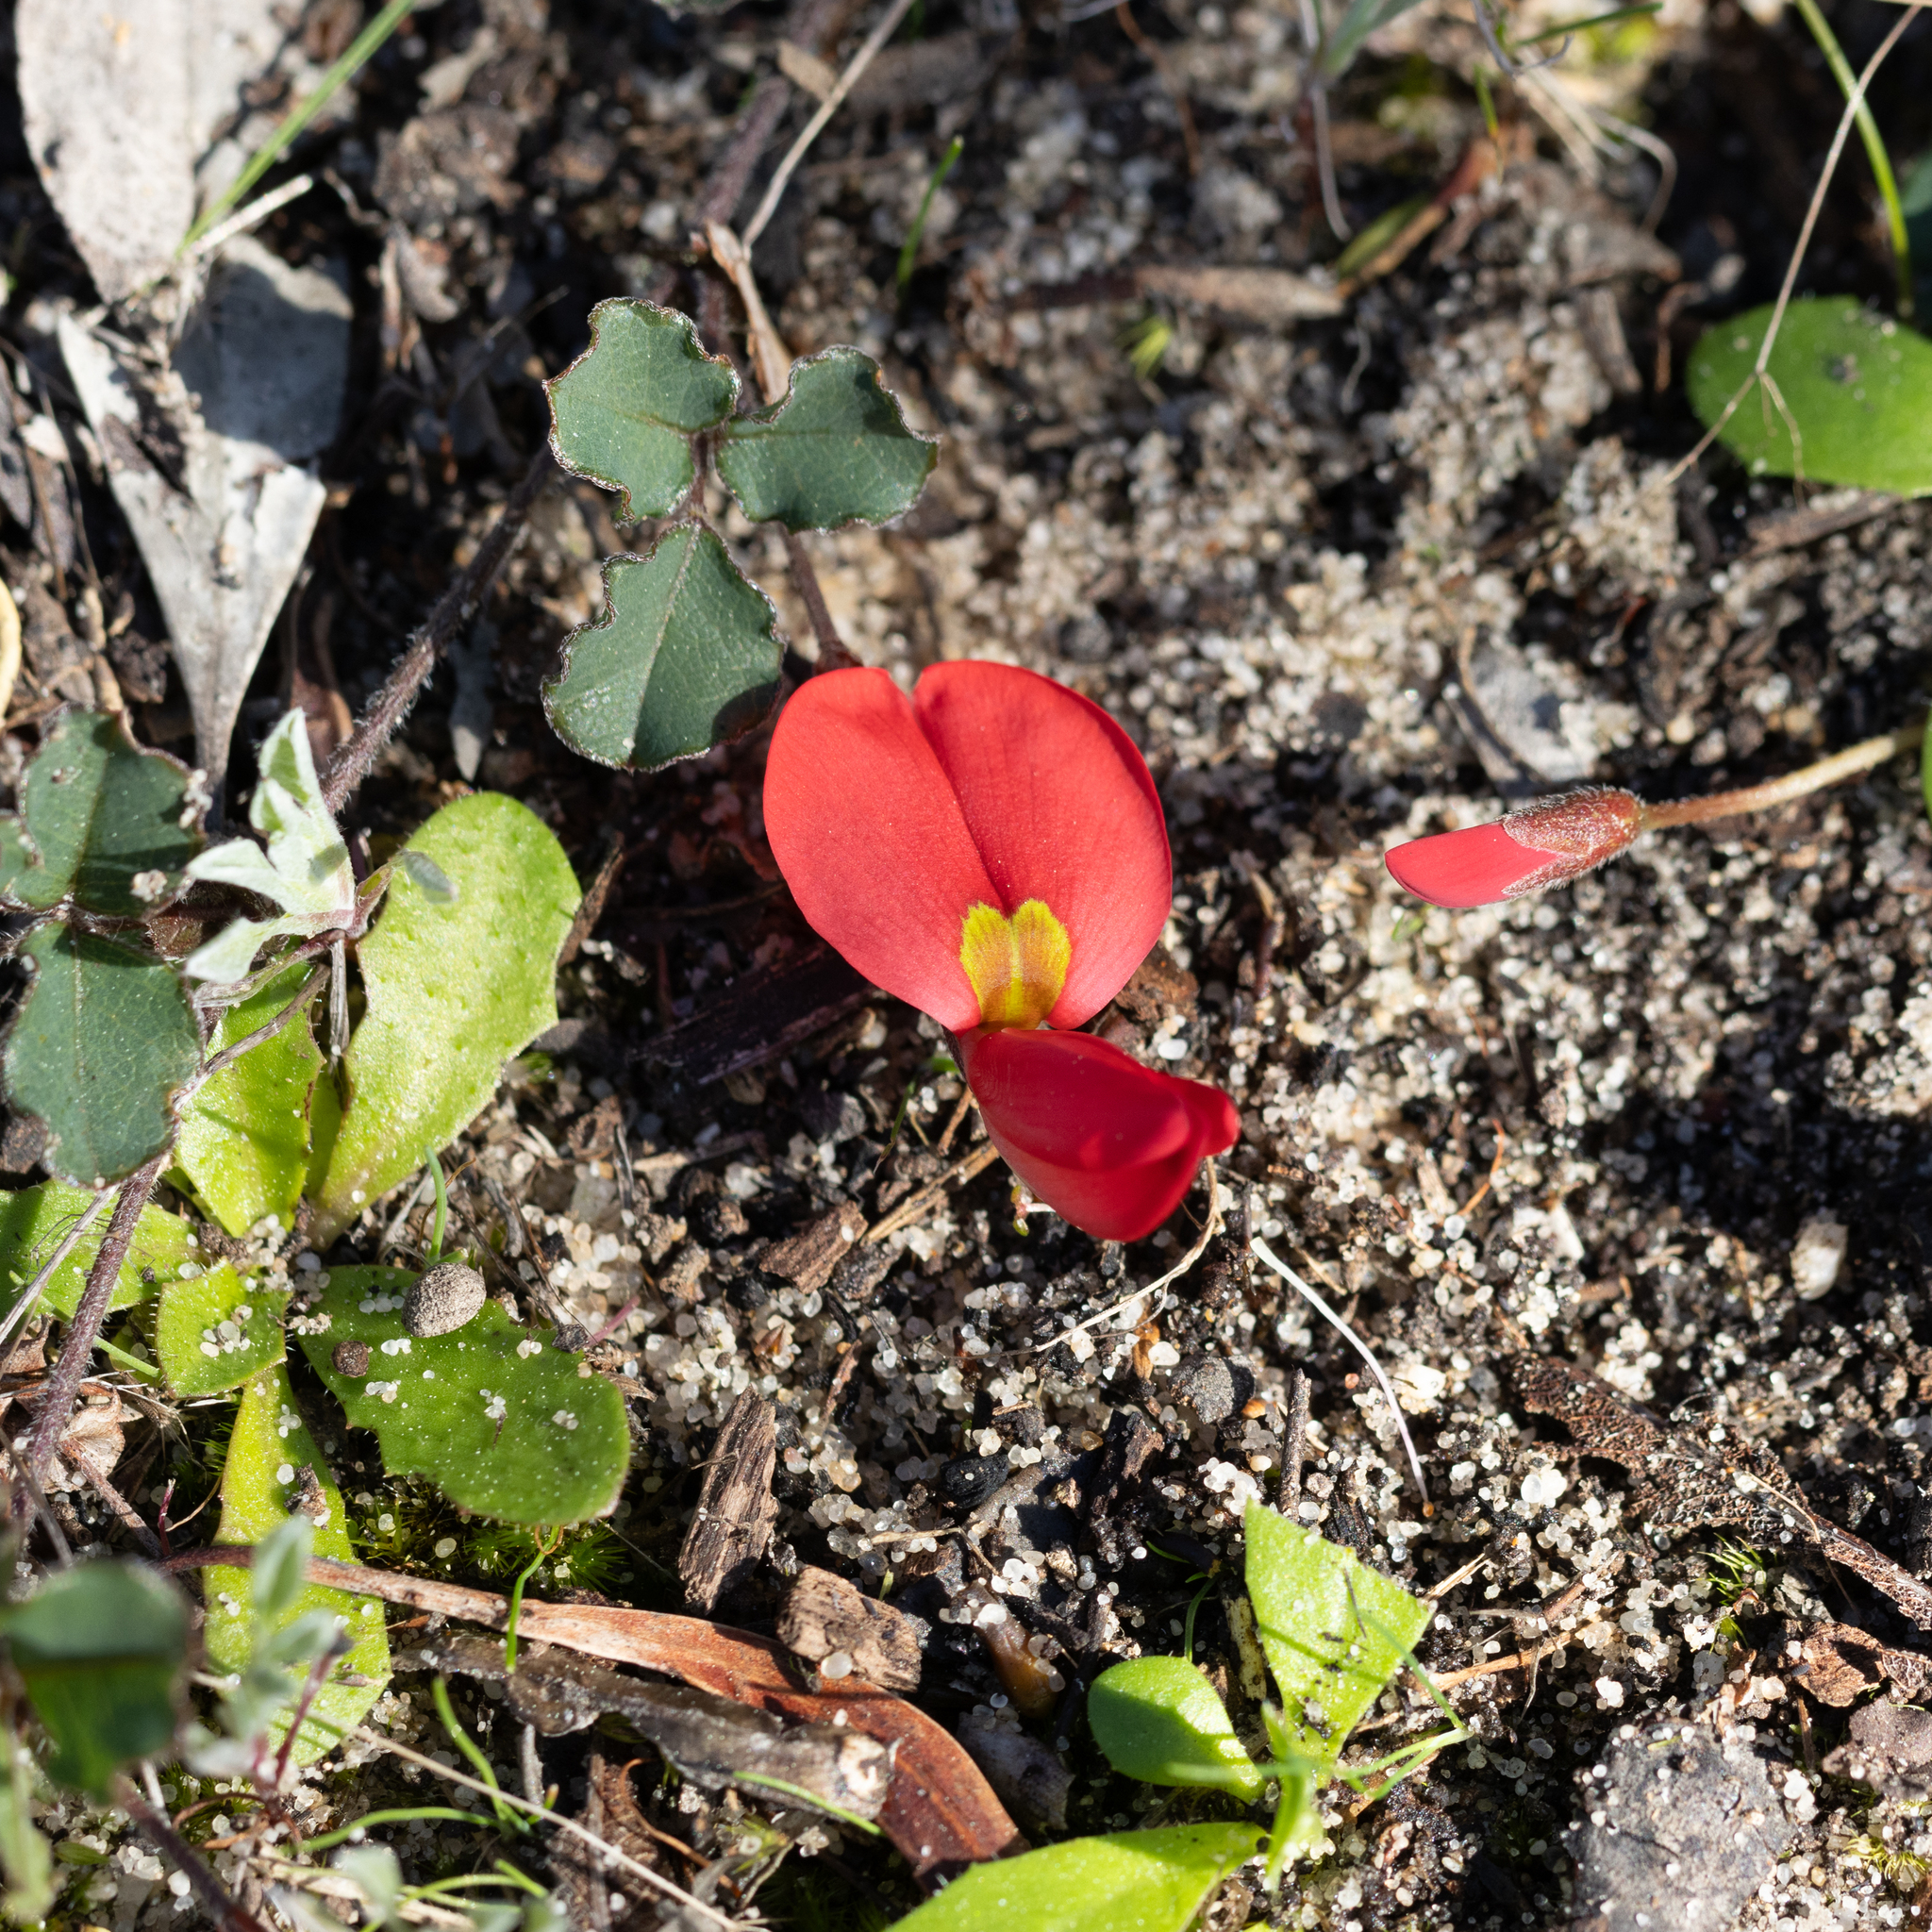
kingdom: Plantae
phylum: Tracheophyta
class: Magnoliopsida
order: Fabales
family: Fabaceae
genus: Kennedia
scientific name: Kennedia prostrata
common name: Running-postman
